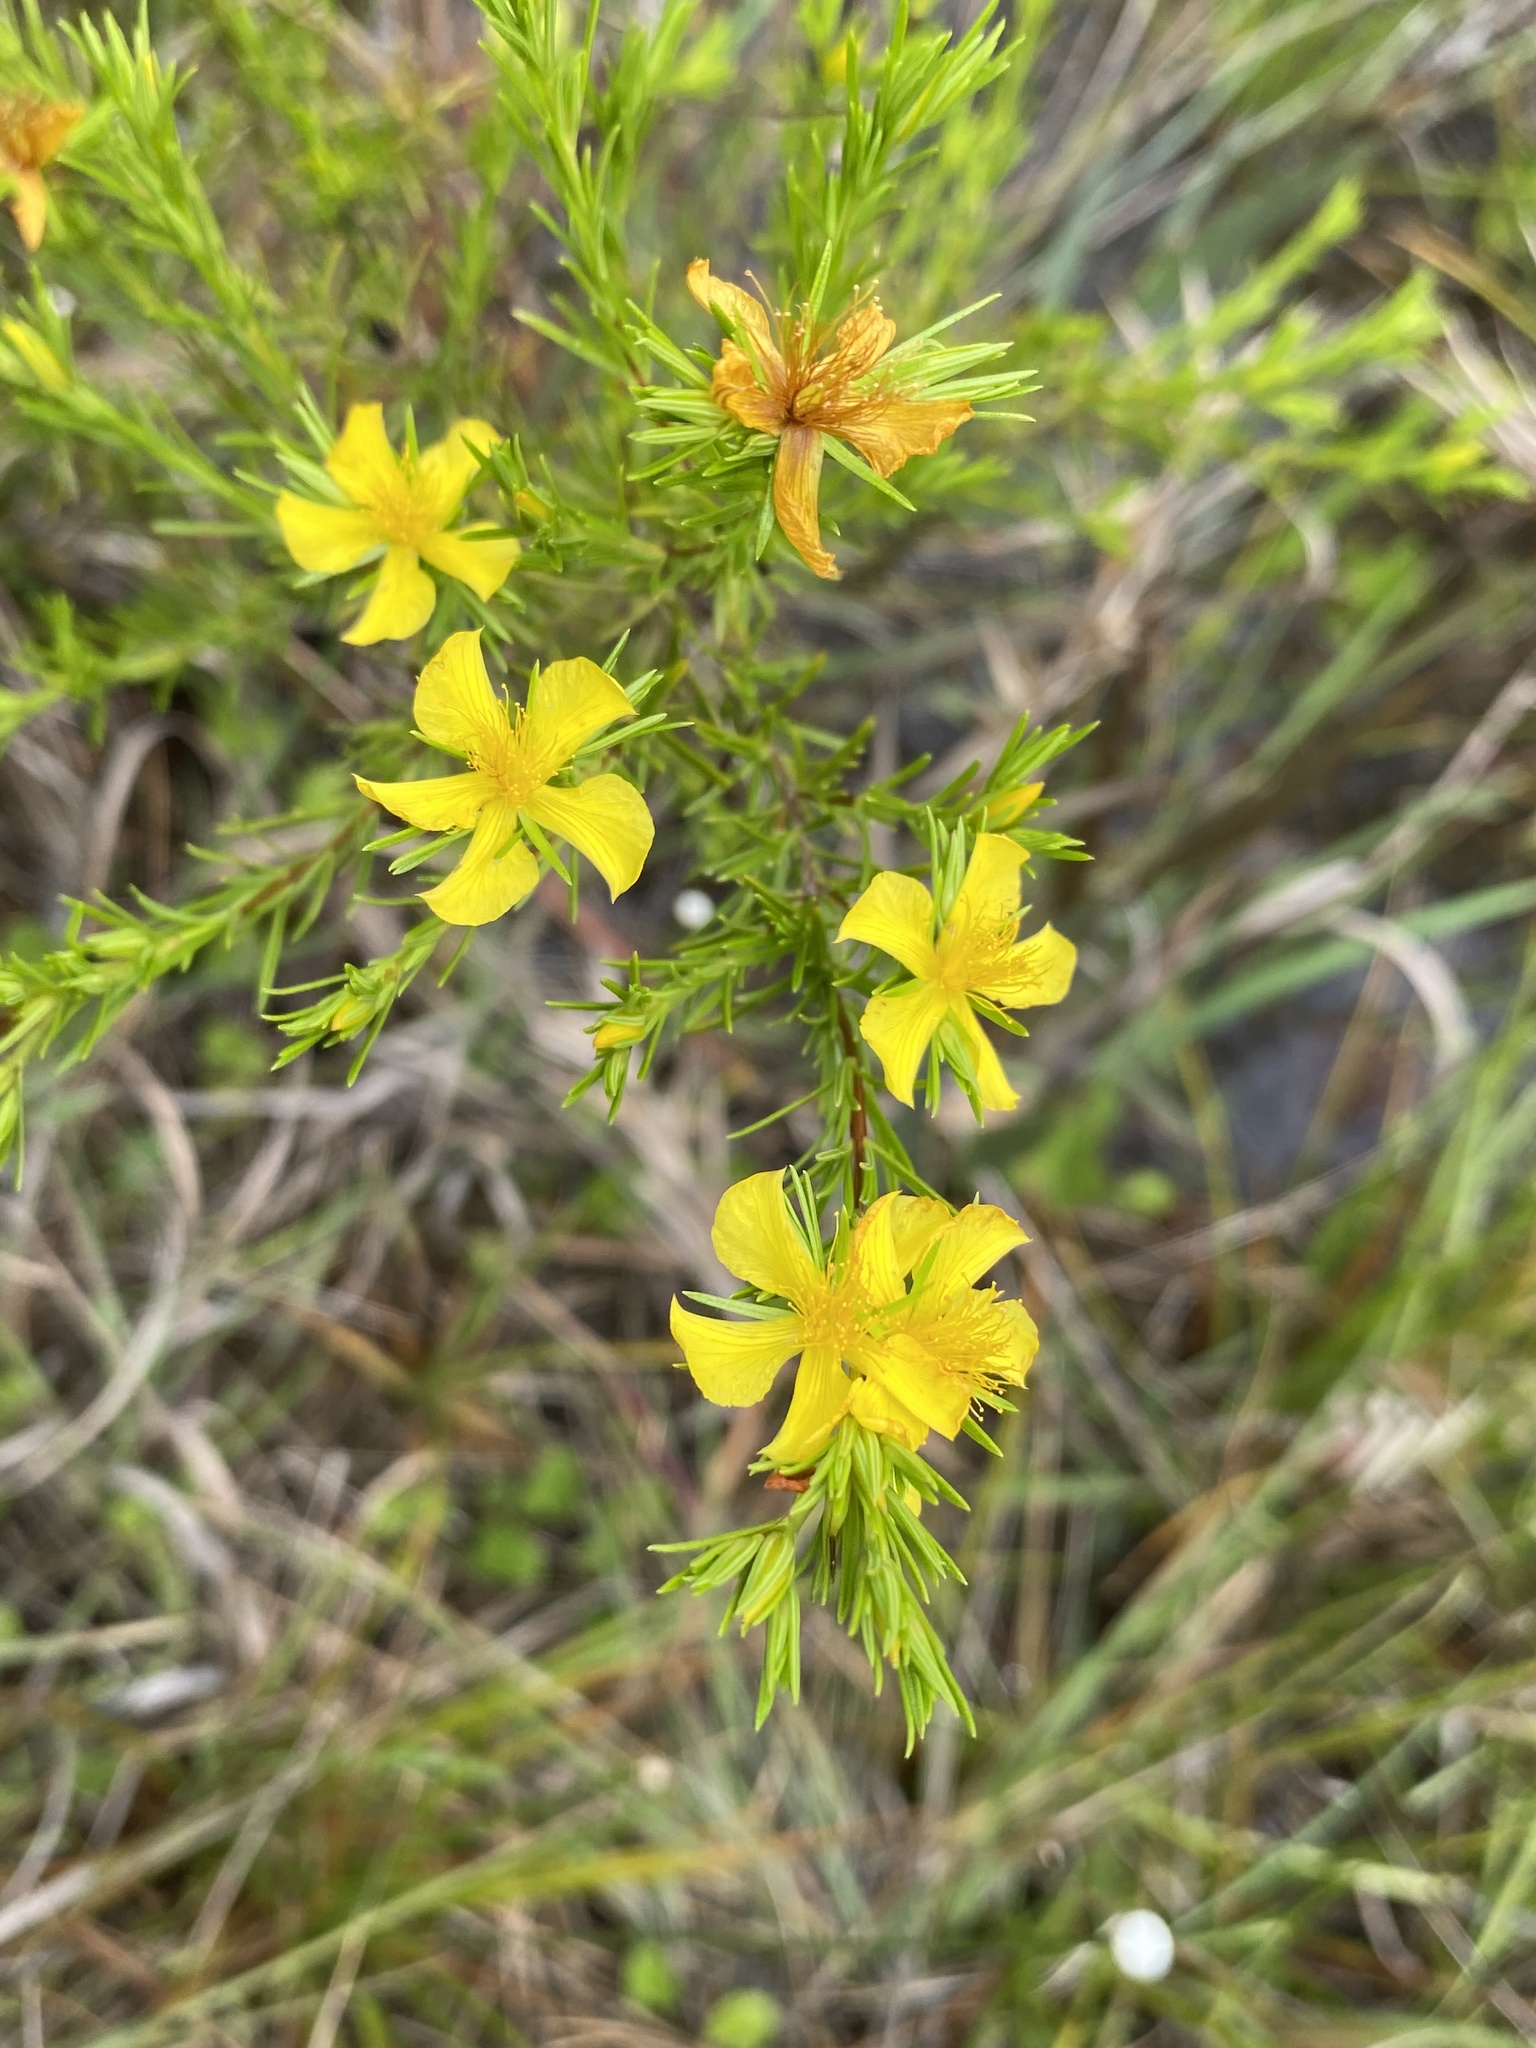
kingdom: Plantae
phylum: Tracheophyta
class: Magnoliopsida
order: Malpighiales
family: Hypericaceae
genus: Hypericum
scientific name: Hypericum fasciculatum
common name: Peelbark st. john's wort
